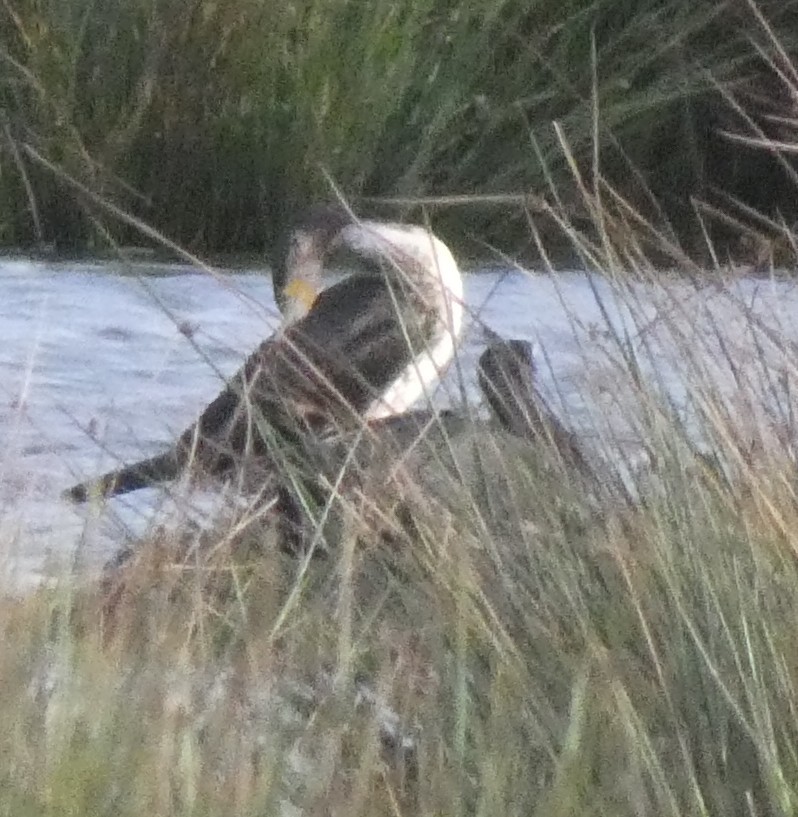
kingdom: Animalia
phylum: Chordata
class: Aves
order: Suliformes
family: Phalacrocoracidae
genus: Phalacrocorax
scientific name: Phalacrocorax carbo
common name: Great cormorant
